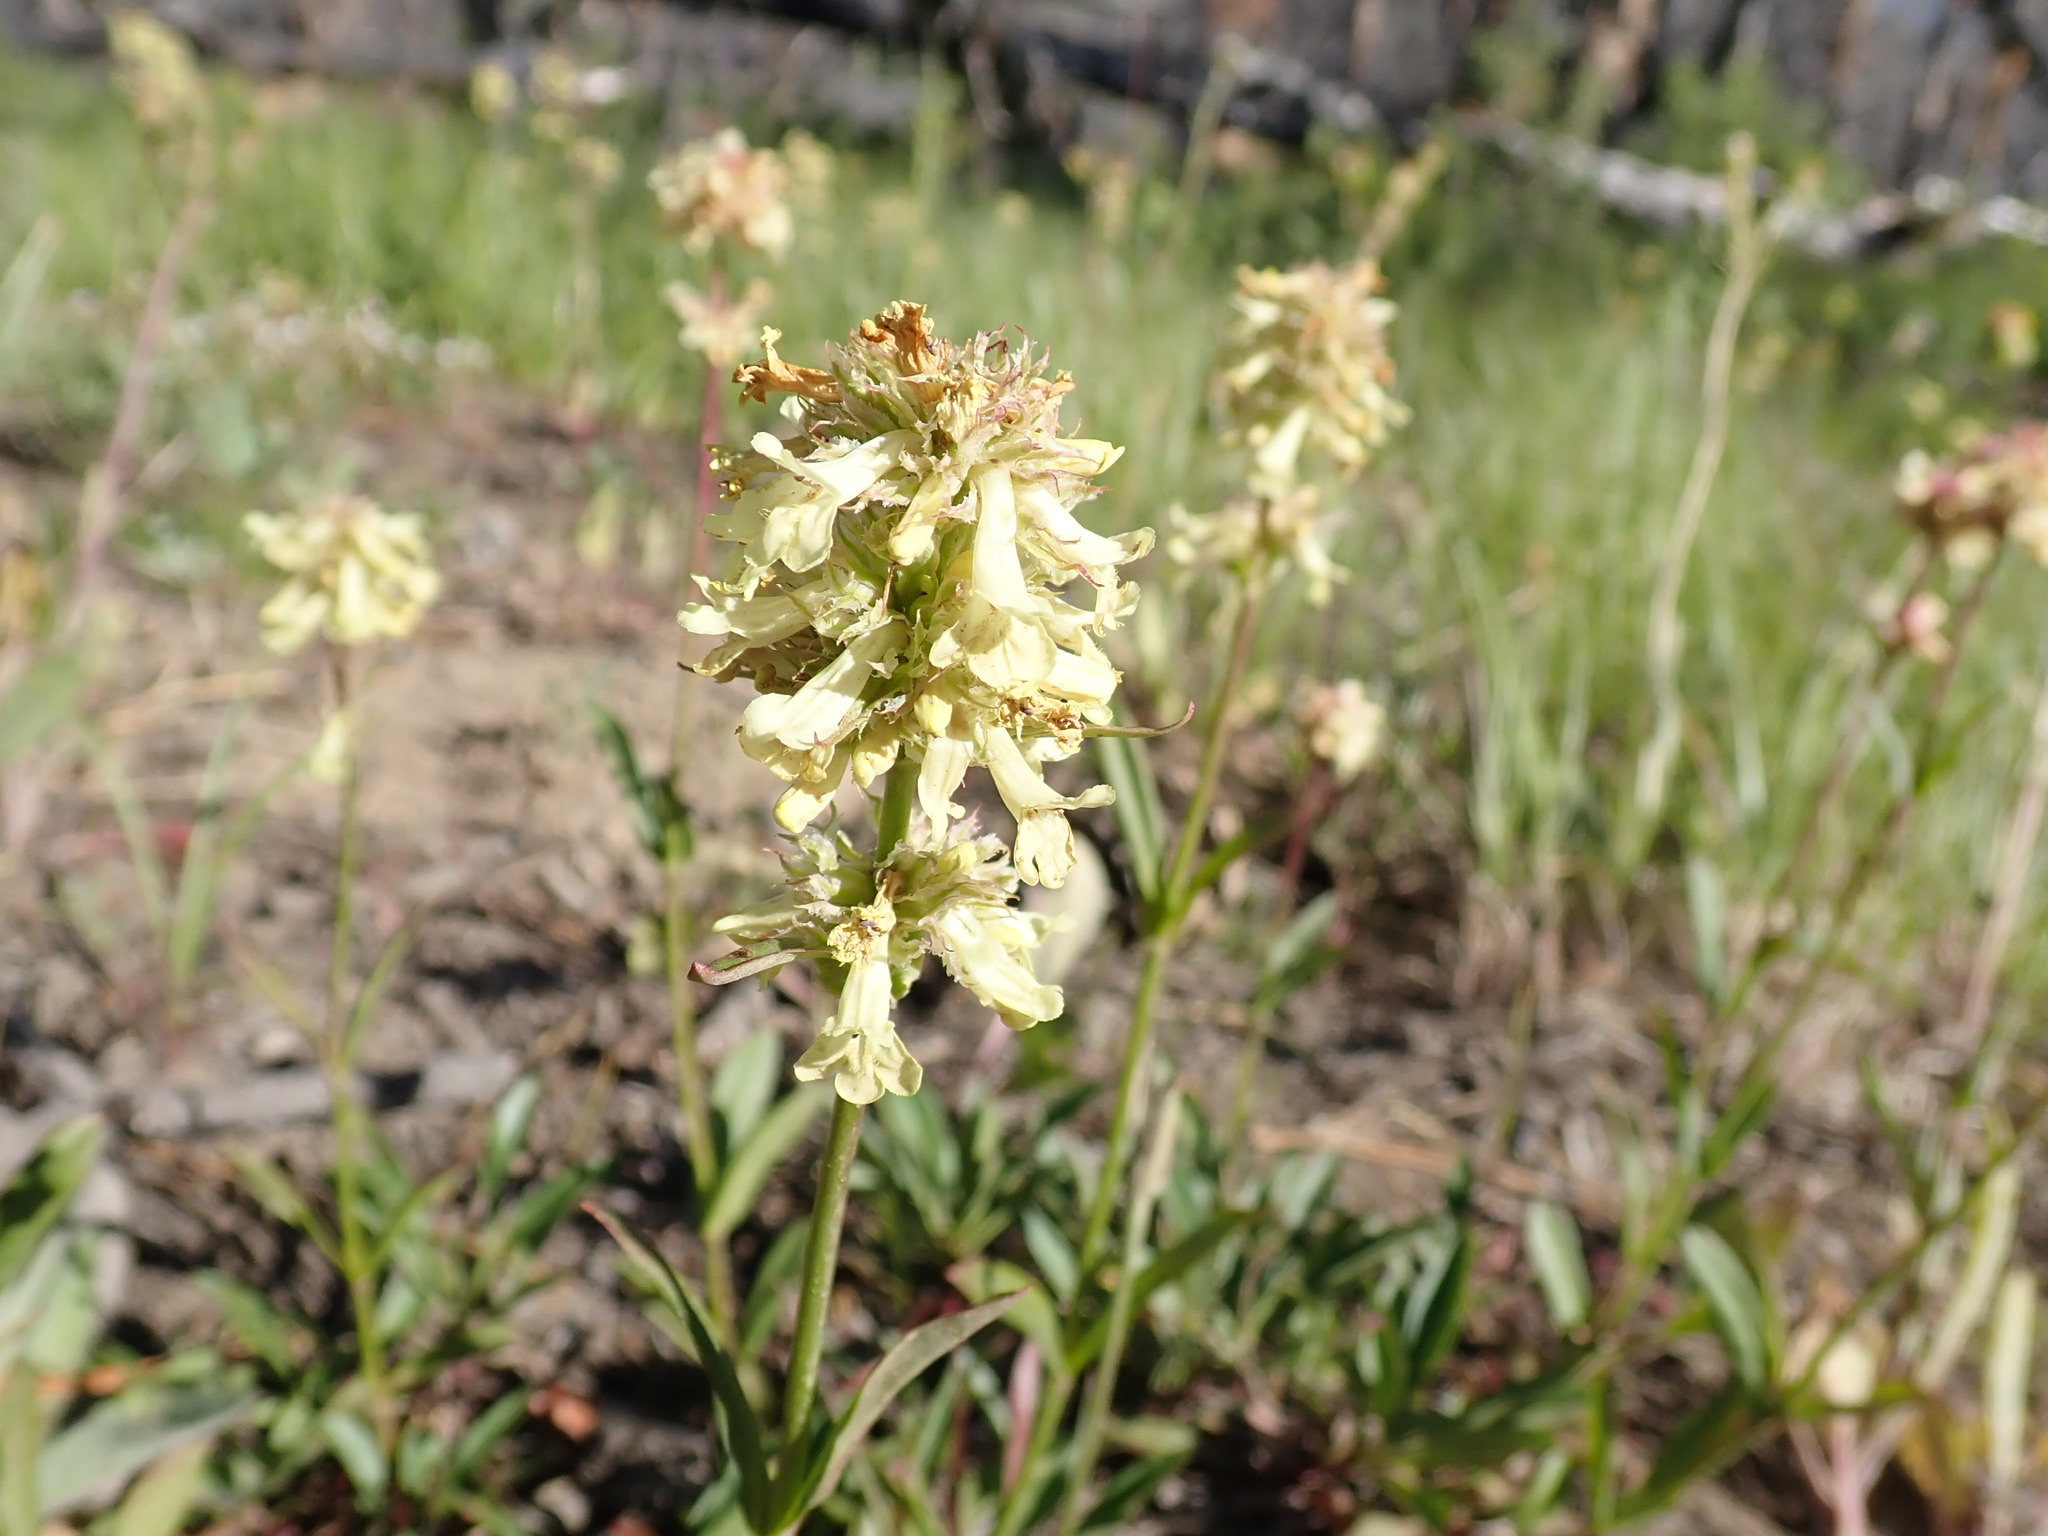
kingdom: Plantae
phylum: Tracheophyta
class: Magnoliopsida
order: Lamiales
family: Plantaginaceae
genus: Penstemon
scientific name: Penstemon confertus
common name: Lesser yellow beardtongue
